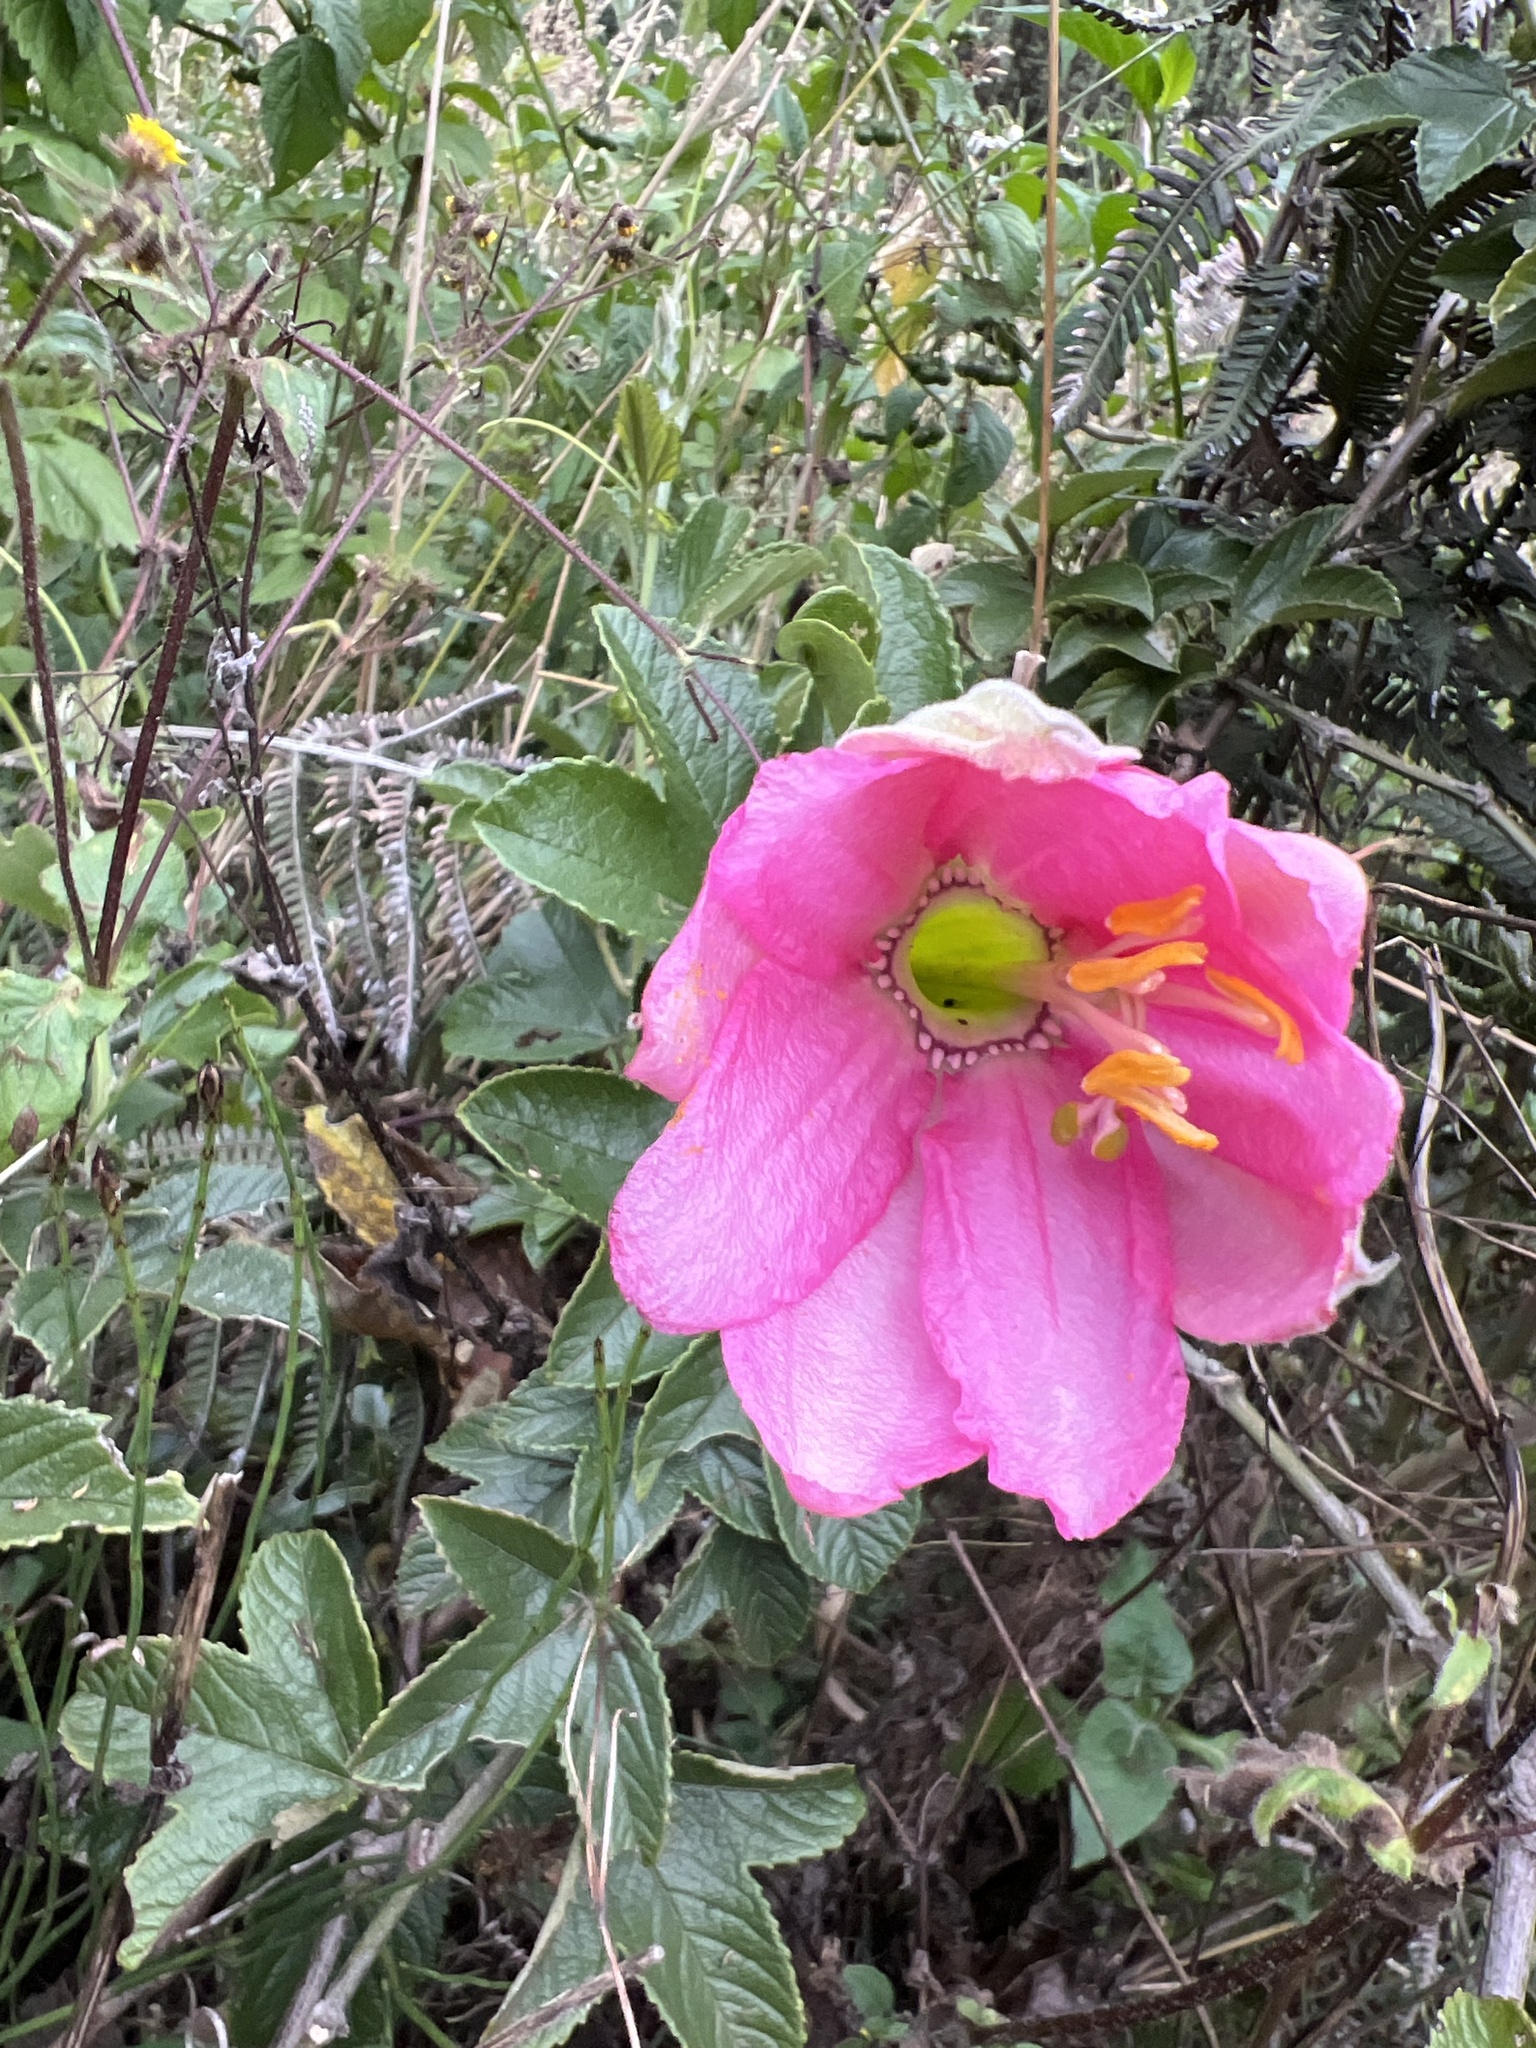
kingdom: Plantae
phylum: Tracheophyta
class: Magnoliopsida
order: Malpighiales
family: Passifloraceae
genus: Passiflora
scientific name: Passiflora mixta
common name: Passion flower
